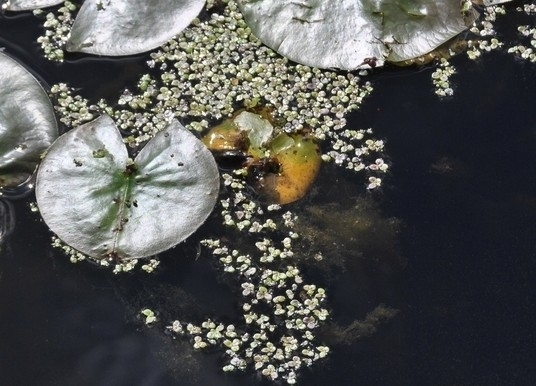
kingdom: Plantae
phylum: Tracheophyta
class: Liliopsida
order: Alismatales
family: Araceae
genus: Spirodela
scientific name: Spirodela polyrhiza
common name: Great duckweed
